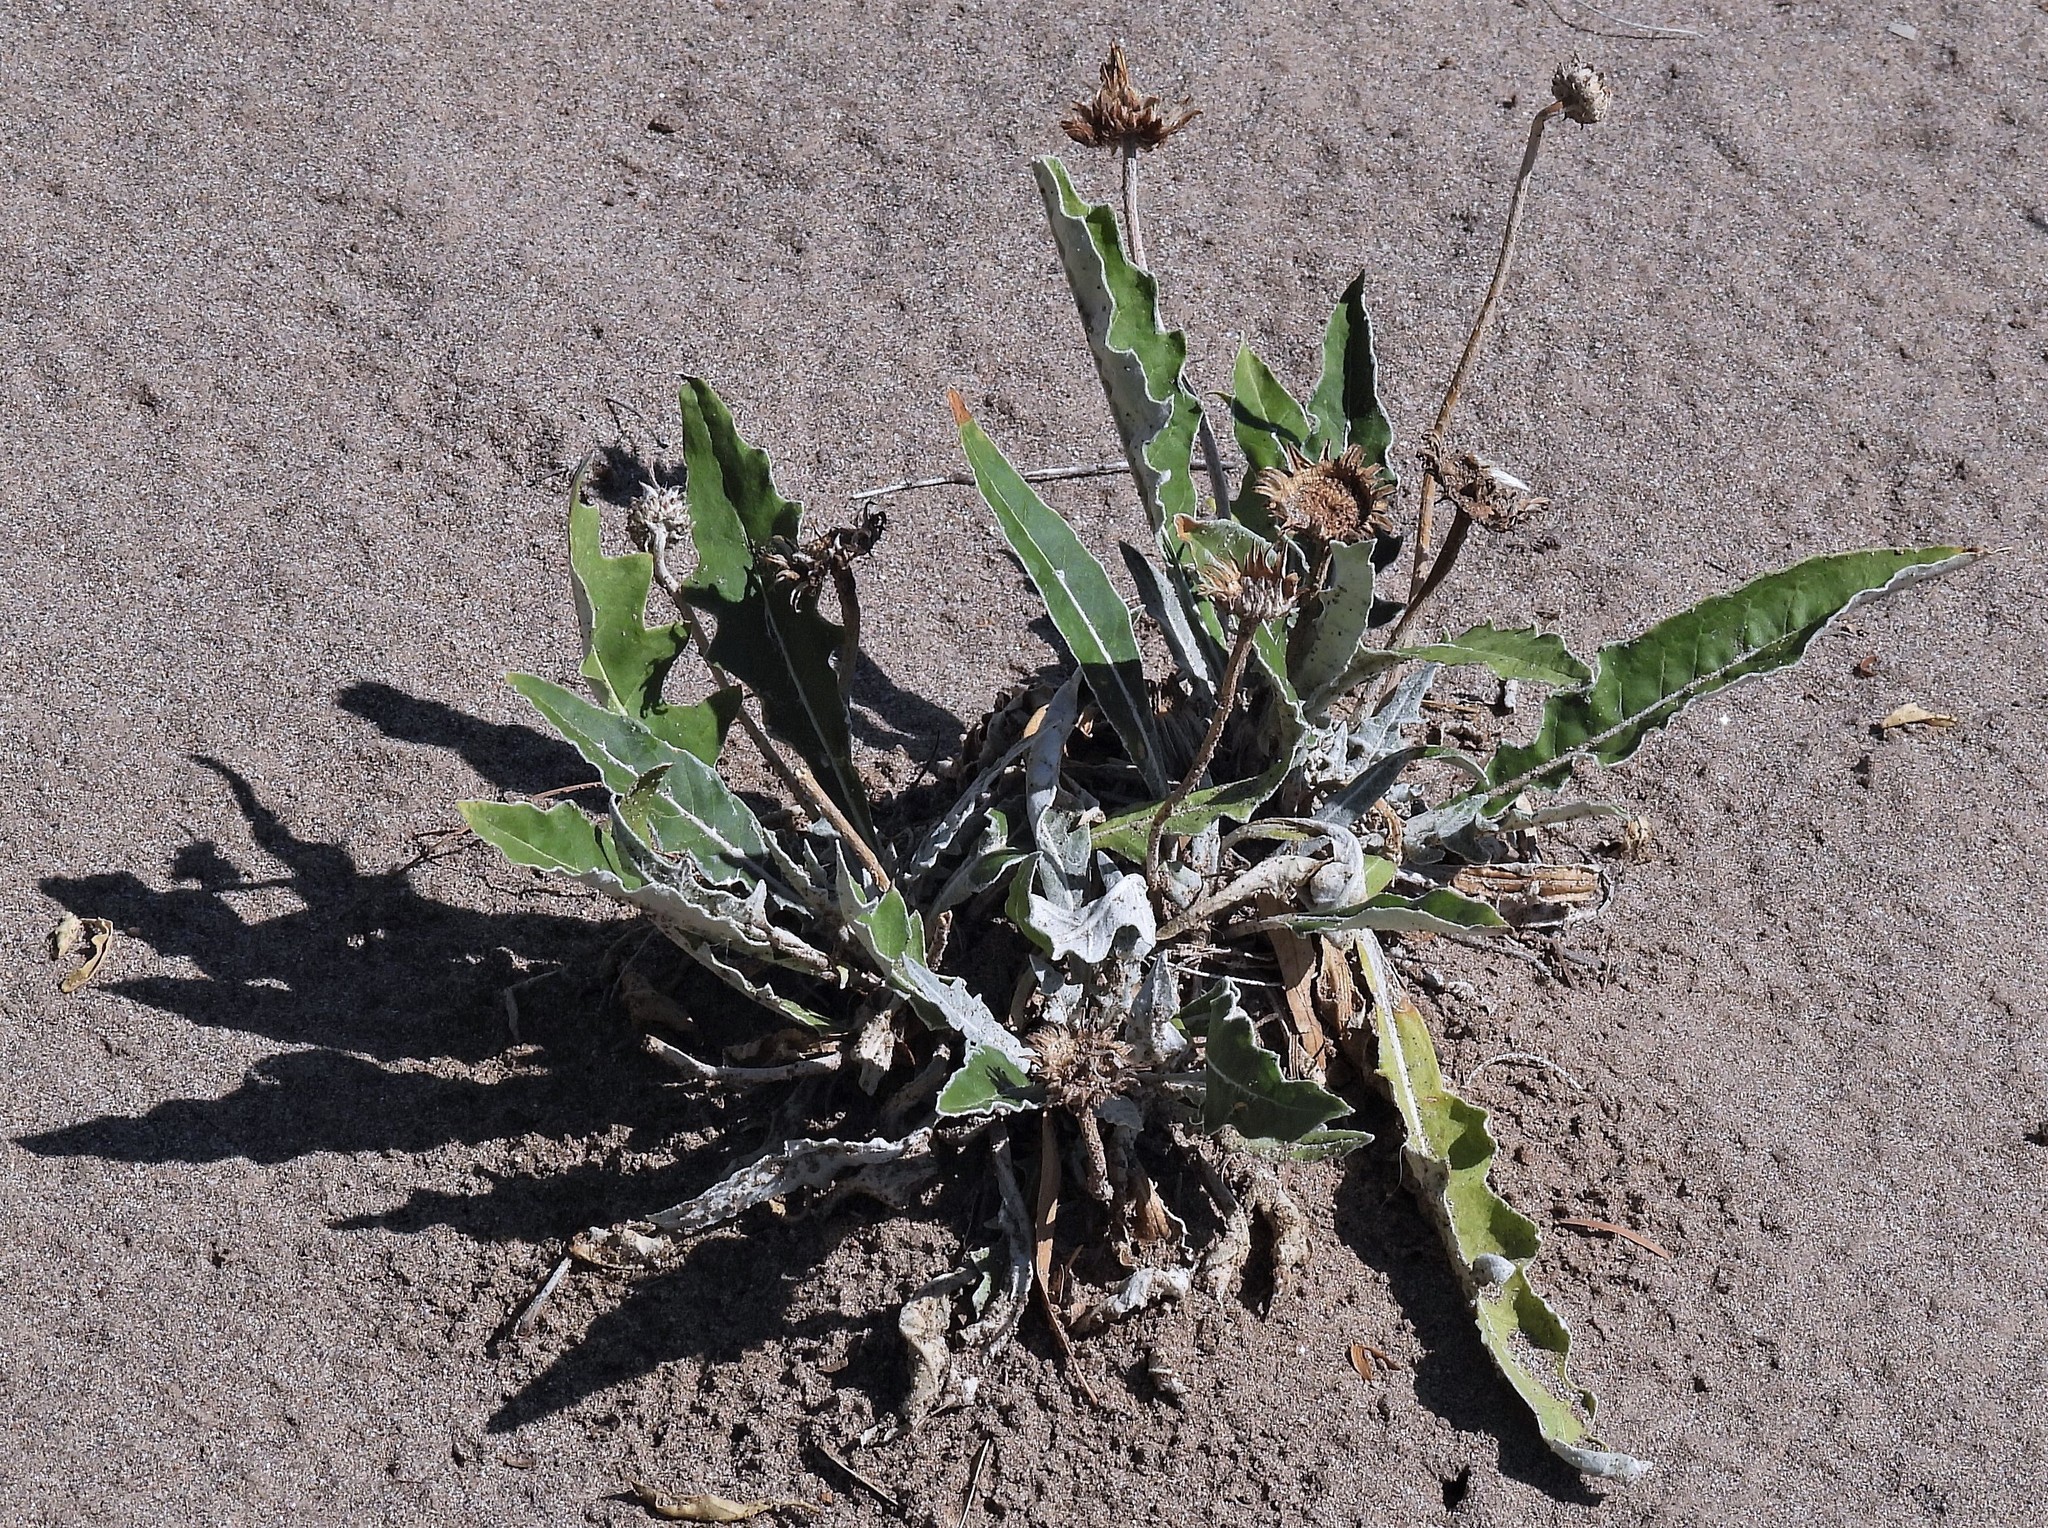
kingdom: Plantae
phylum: Tracheophyta
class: Magnoliopsida
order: Asterales
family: Asteraceae
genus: Trichocline
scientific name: Trichocline reptans
